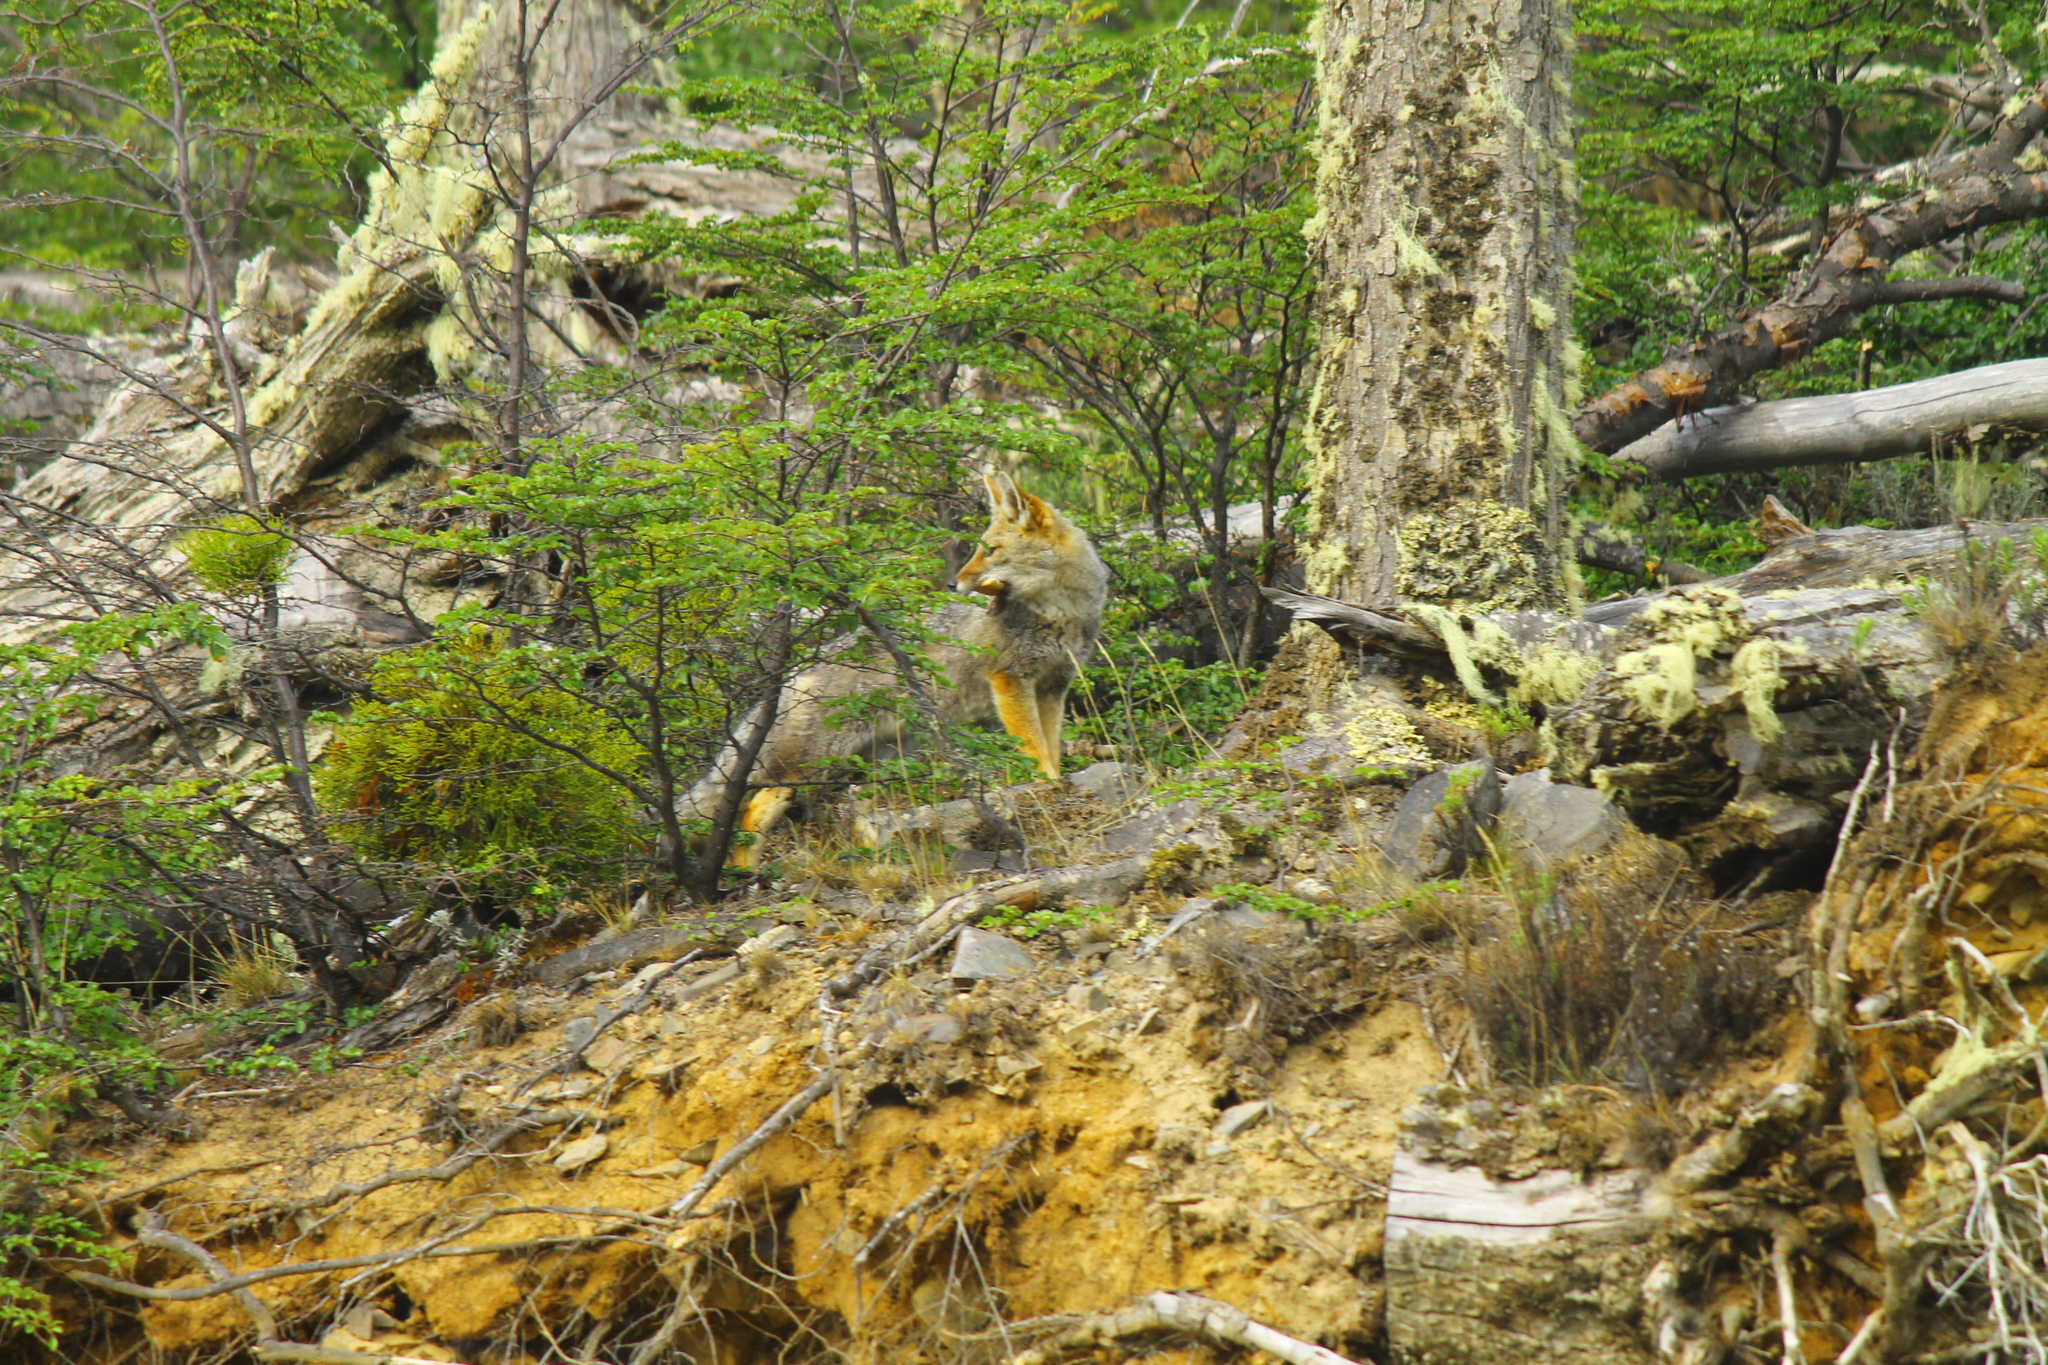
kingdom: Animalia
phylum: Chordata
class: Mammalia
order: Carnivora
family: Canidae
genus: Lycalopex
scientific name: Lycalopex culpaeus
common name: Culpeo
